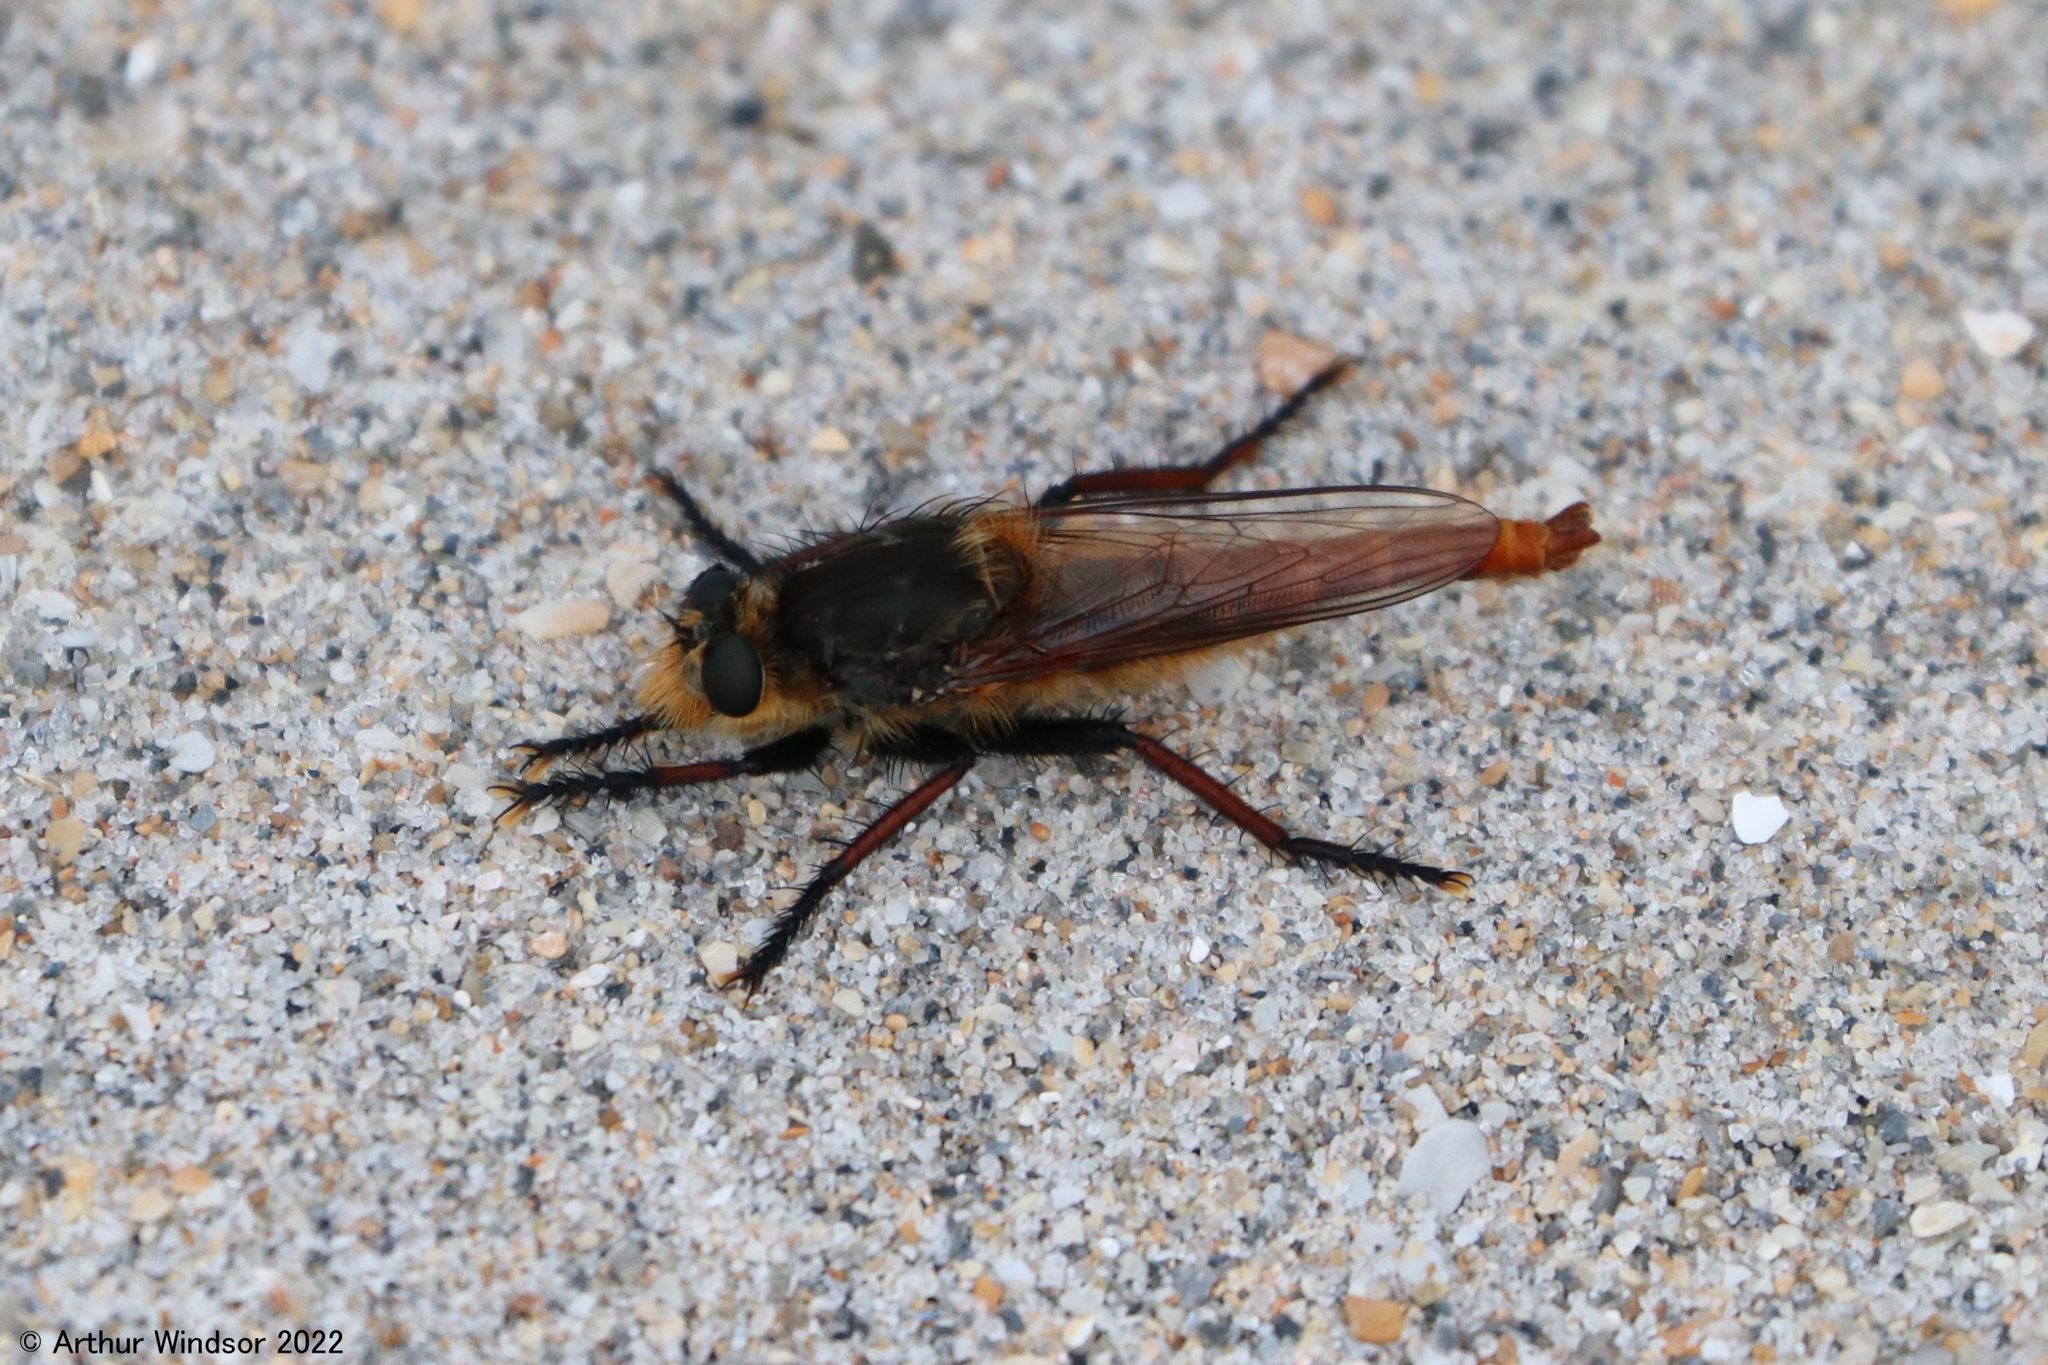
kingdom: Animalia
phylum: Arthropoda
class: Insecta
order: Diptera
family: Asilidae
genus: Proctacanthus
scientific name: Proctacanthus fulviventris
